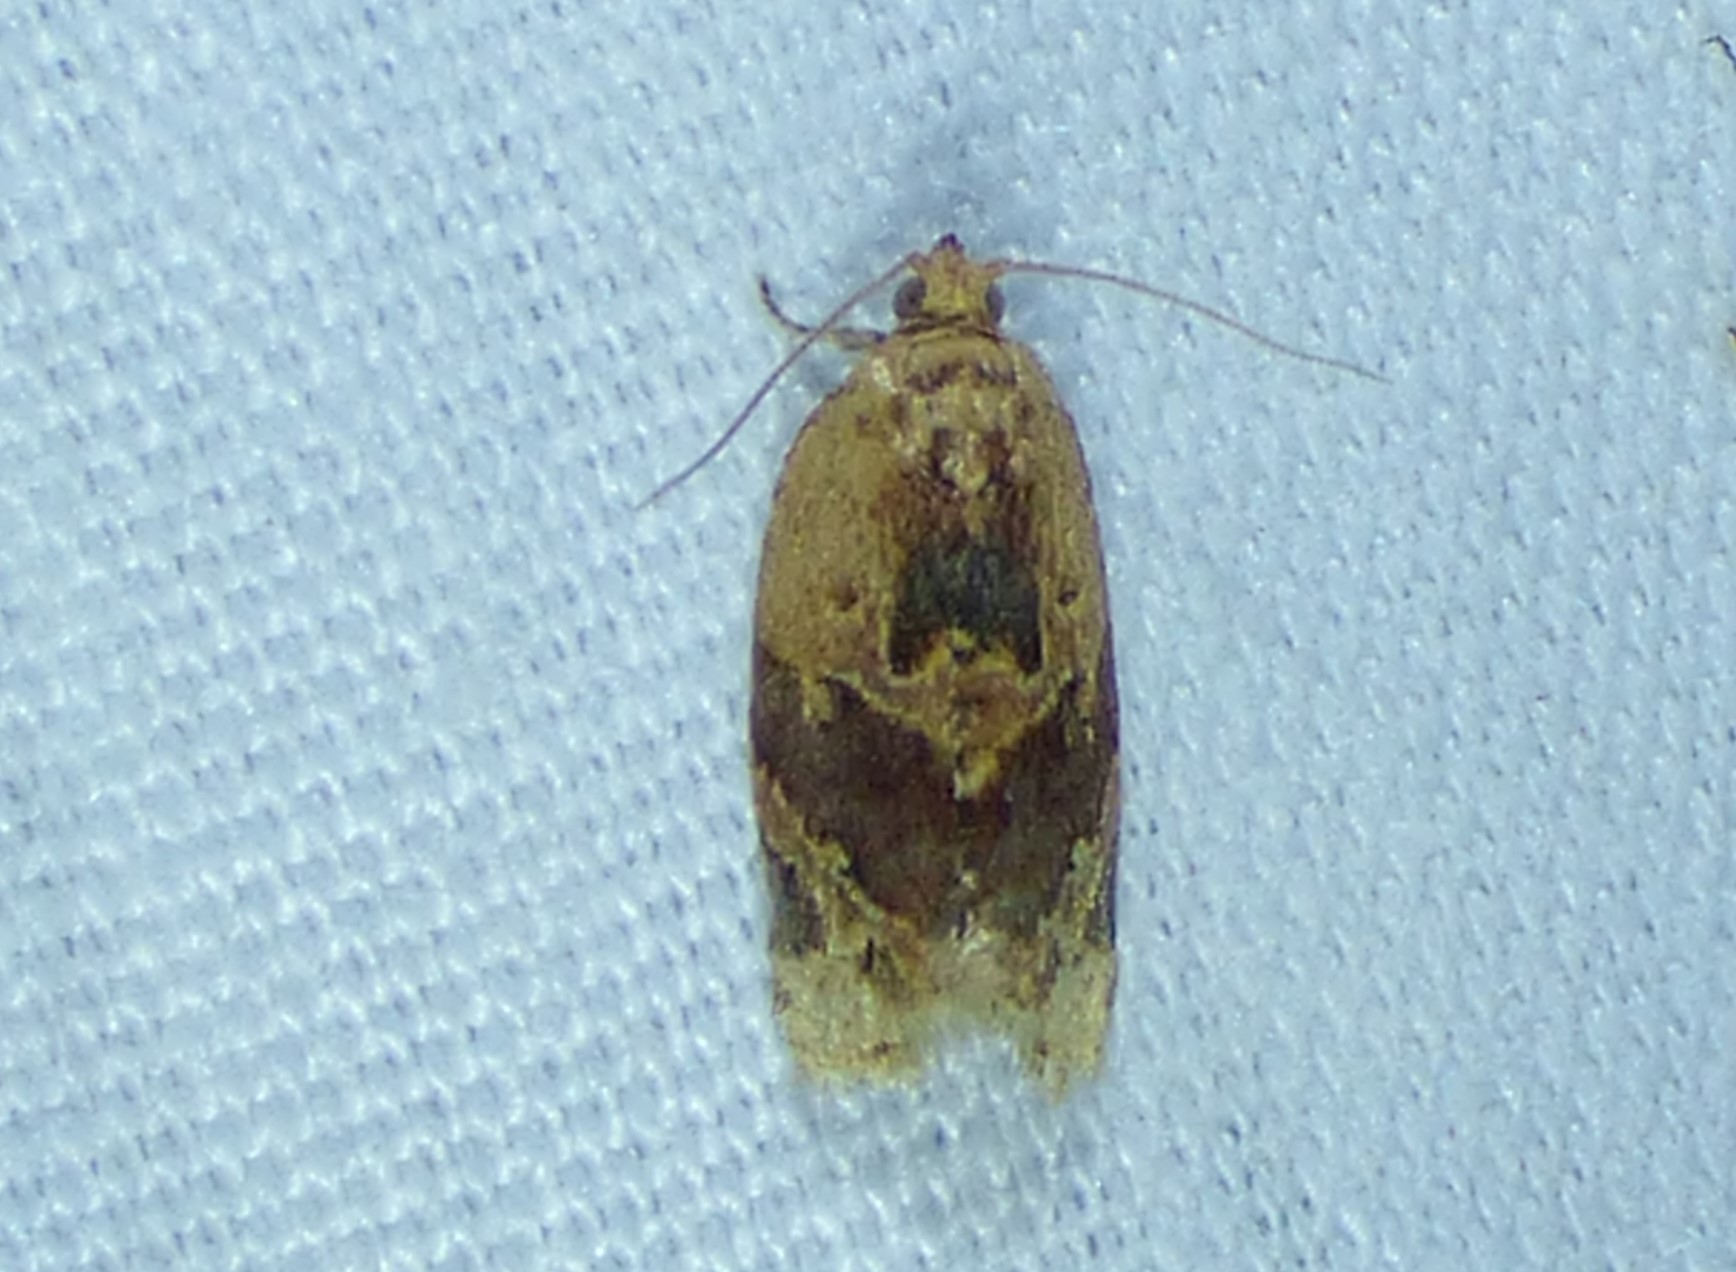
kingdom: Animalia
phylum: Arthropoda
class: Insecta
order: Lepidoptera
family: Tortricidae
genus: Argyrotaenia
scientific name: Argyrotaenia velutinana
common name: Red-banded leafroller moth
